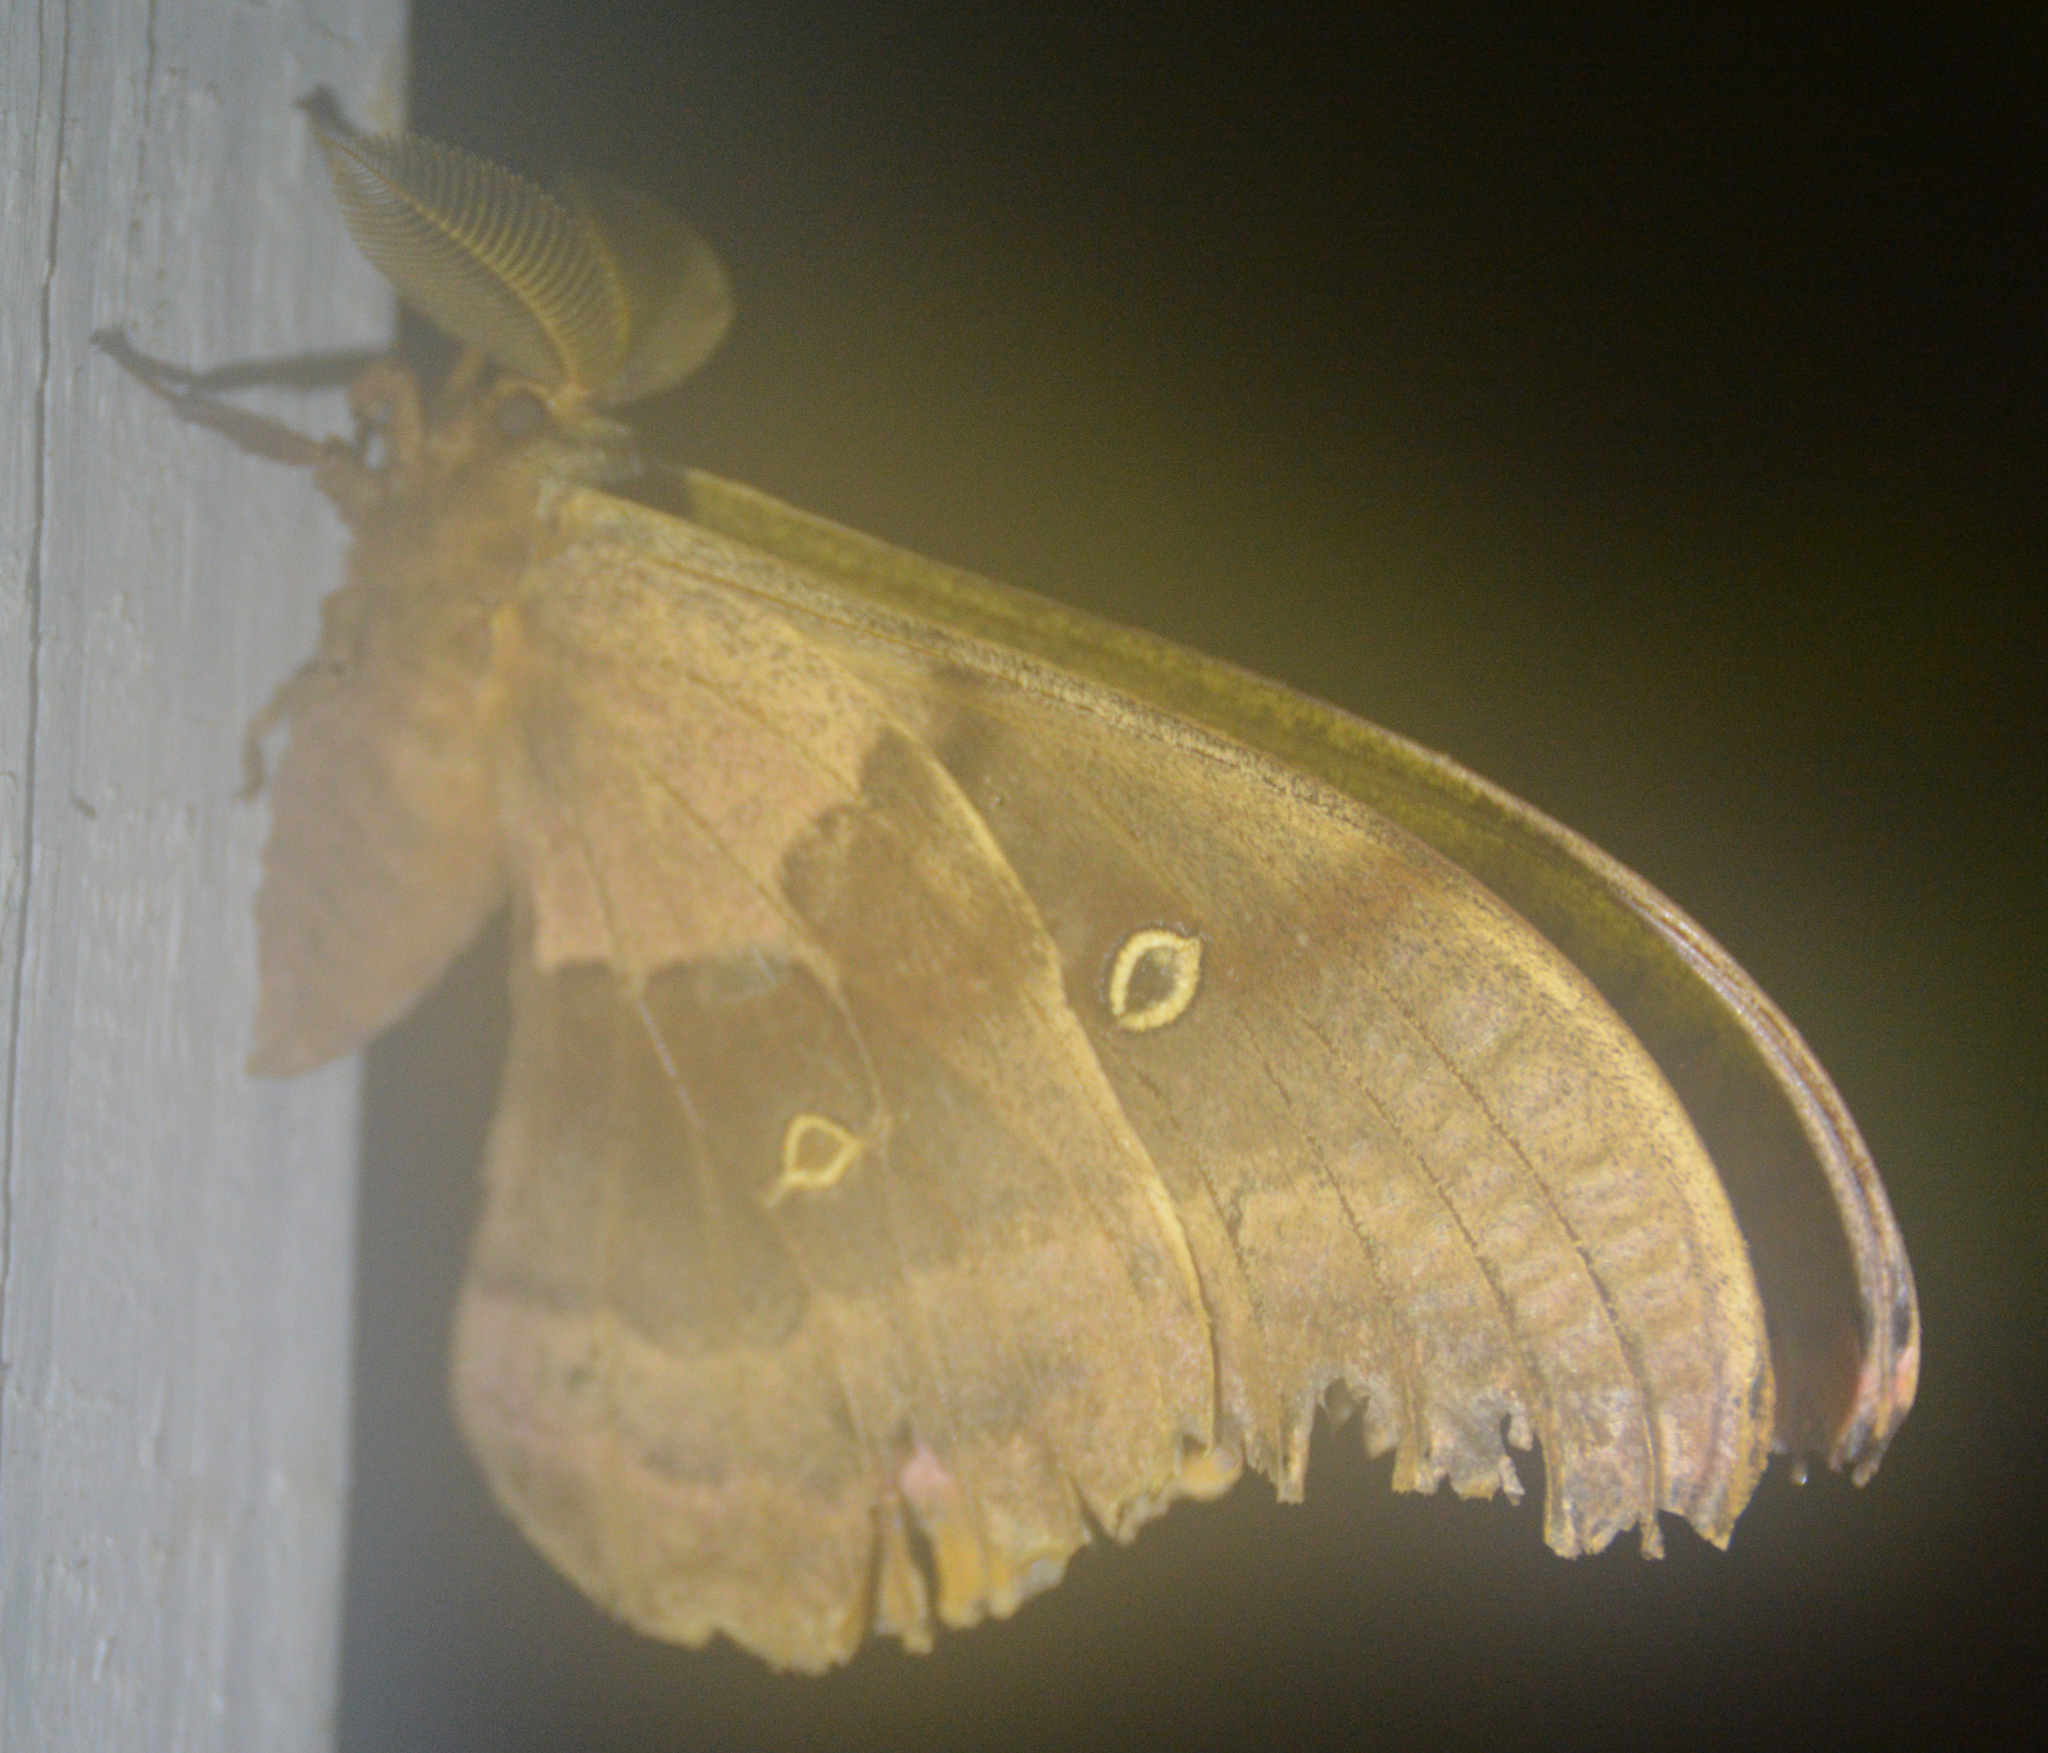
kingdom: Animalia
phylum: Arthropoda
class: Insecta
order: Lepidoptera
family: Saturniidae
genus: Antheraea
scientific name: Antheraea polyphemus
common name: Polyphemus moth
